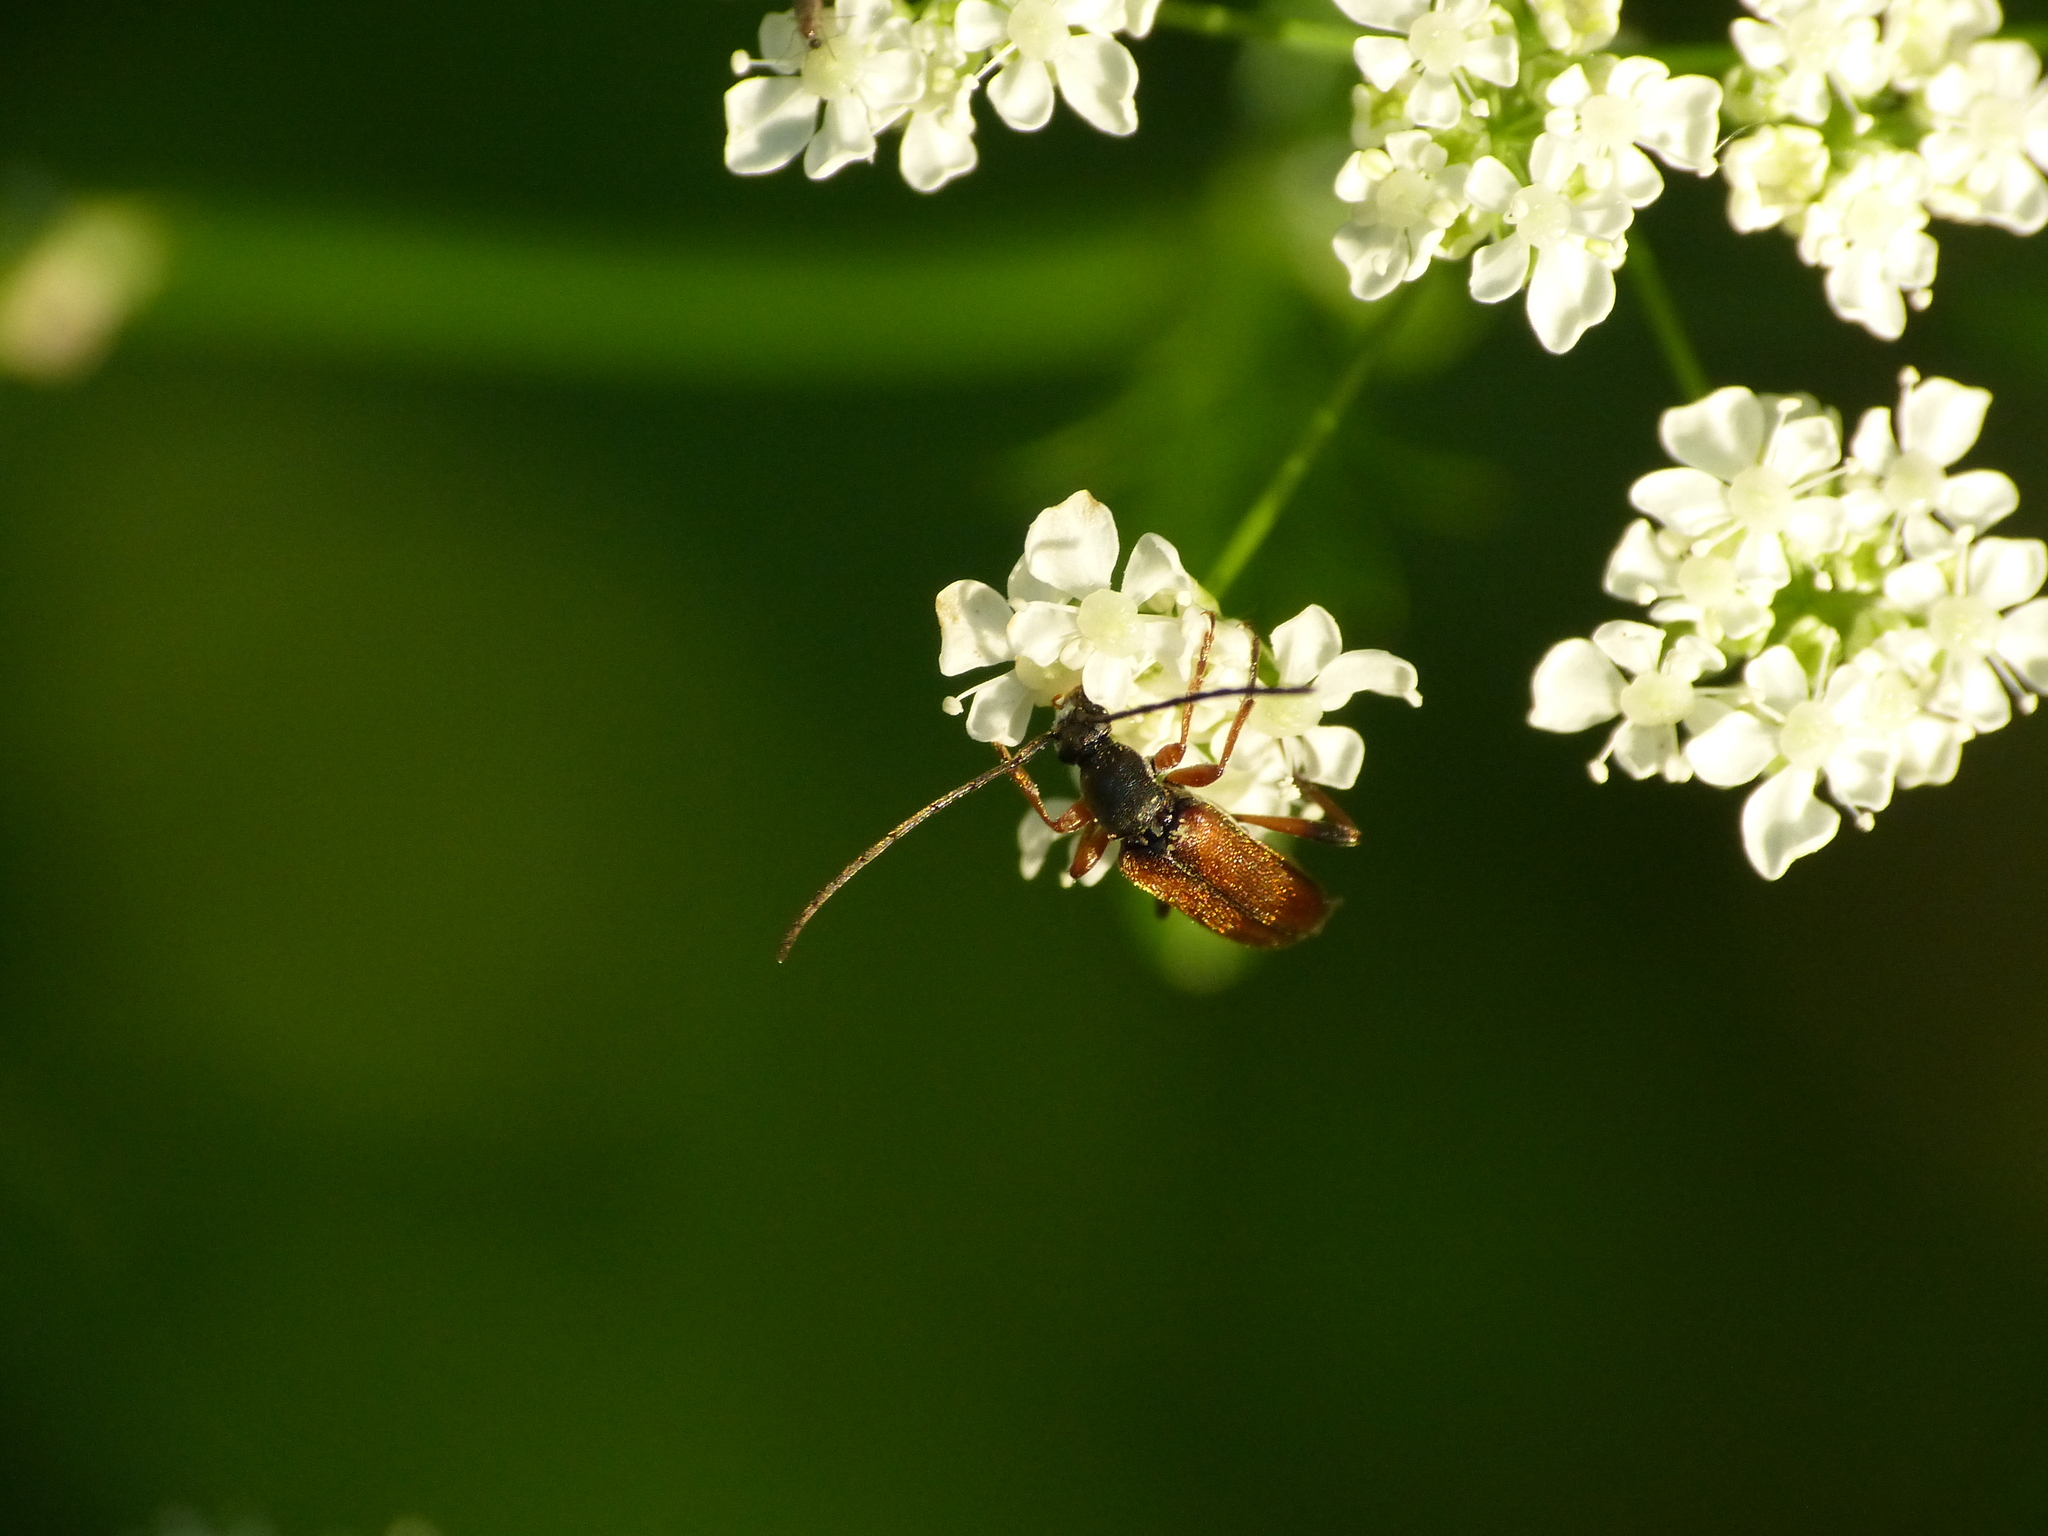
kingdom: Animalia
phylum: Arthropoda
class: Insecta
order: Coleoptera
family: Cerambycidae
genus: Alosterna
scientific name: Alosterna tabacicolor
